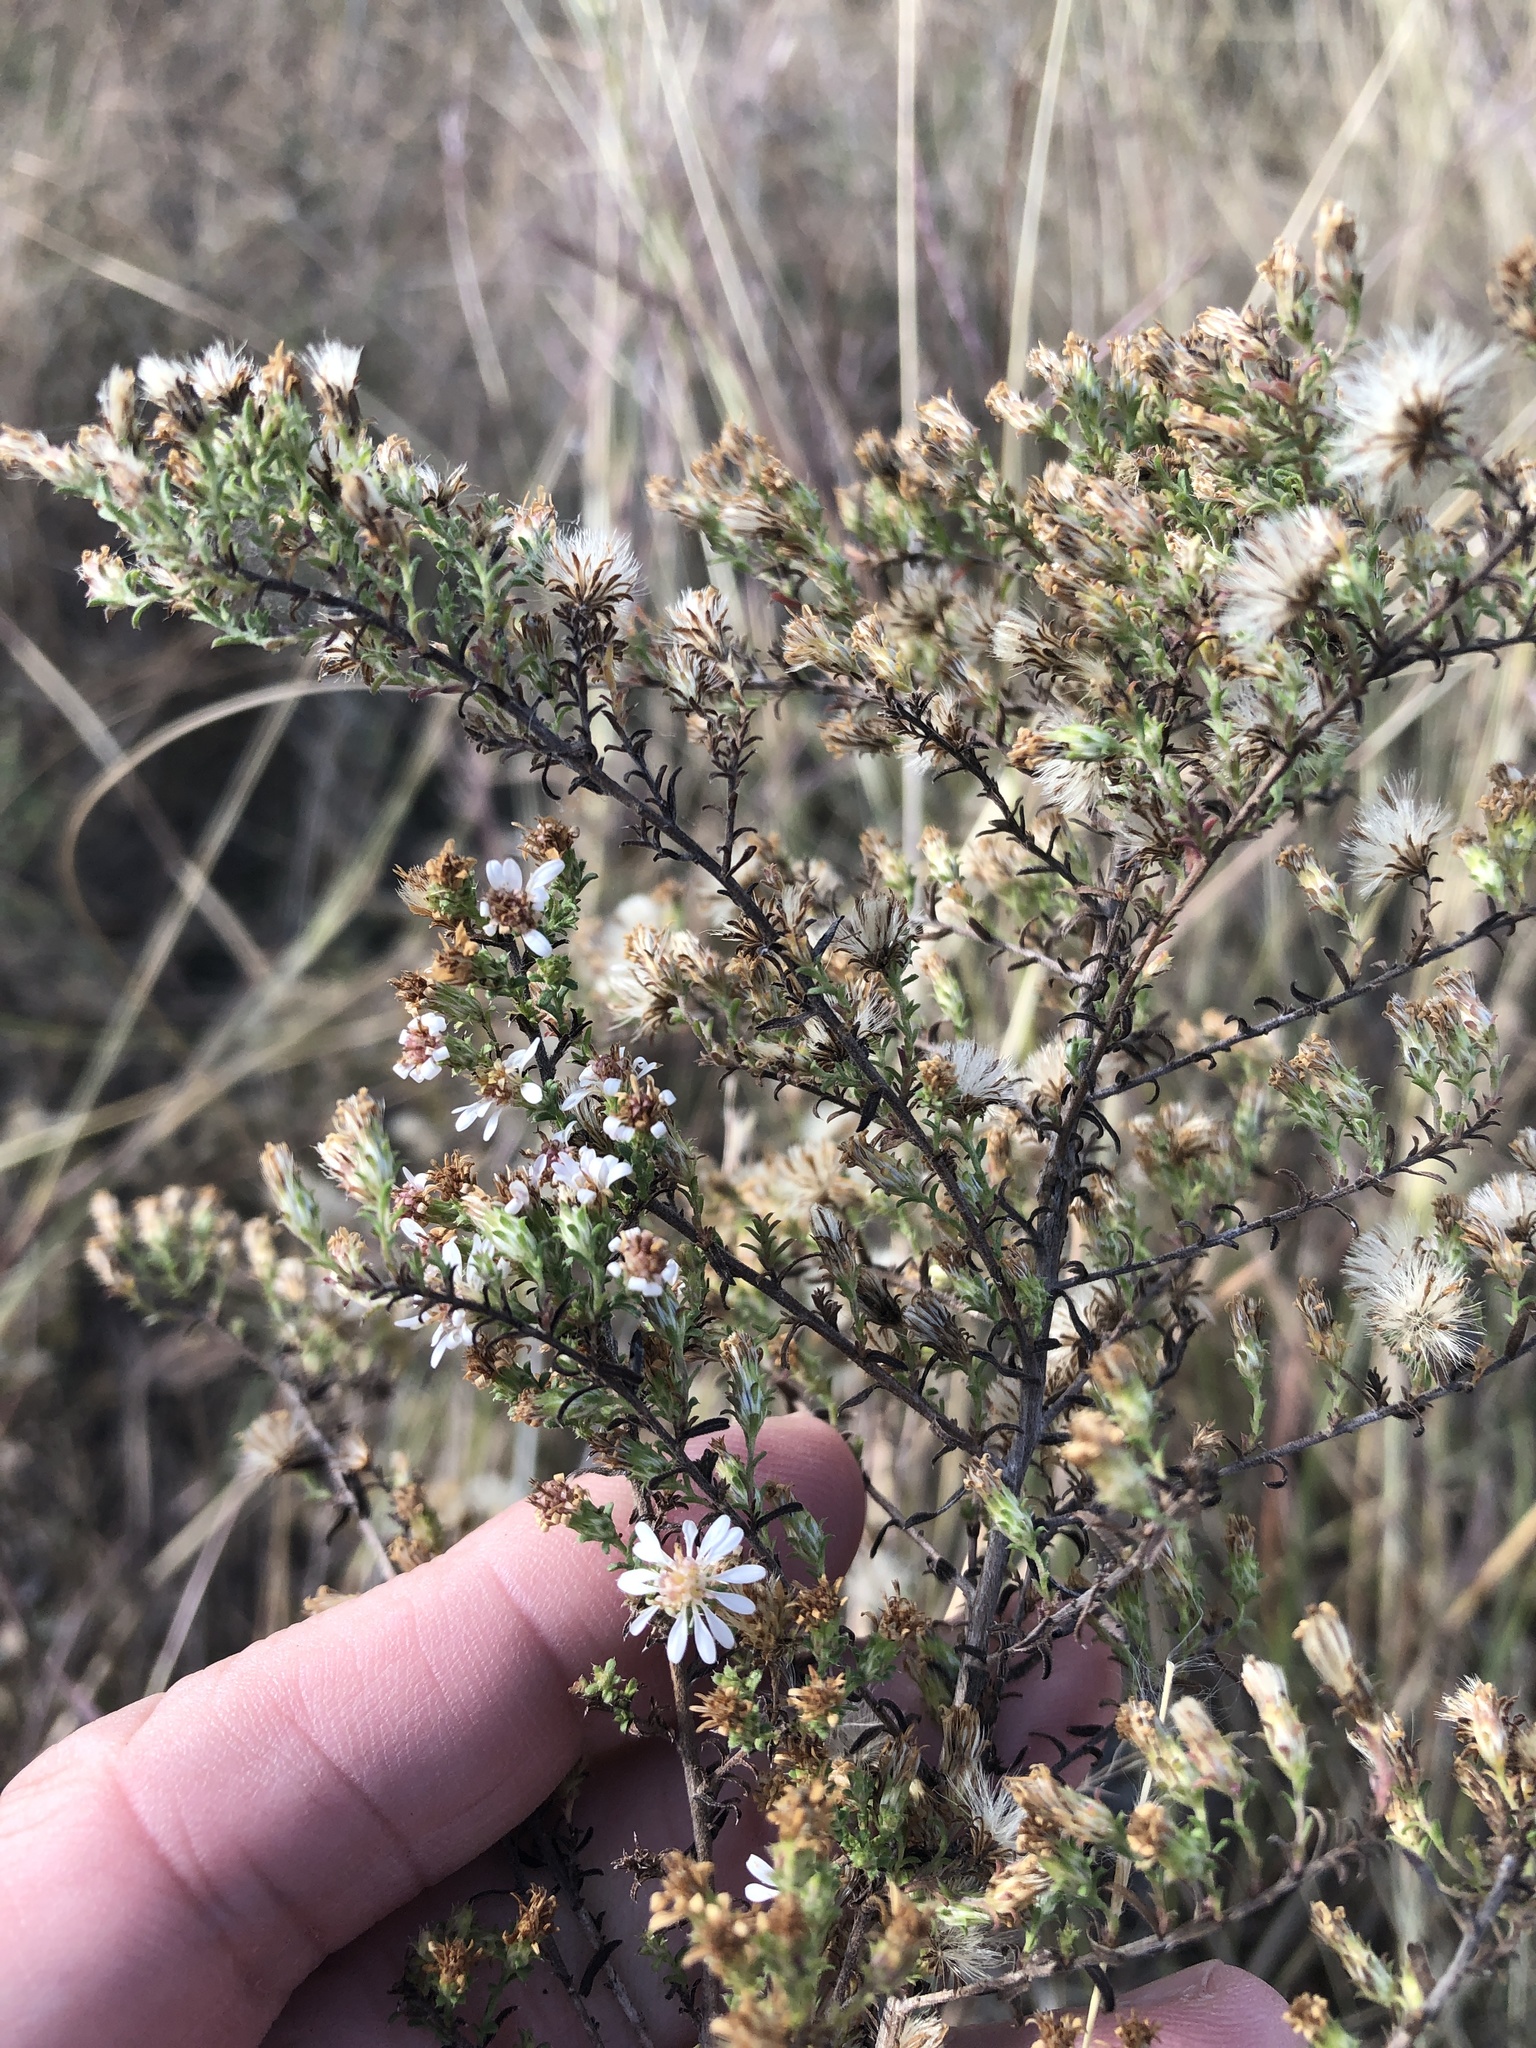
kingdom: Plantae
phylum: Tracheophyta
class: Magnoliopsida
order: Asterales
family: Asteraceae
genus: Symphyotrichum
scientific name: Symphyotrichum ericoides
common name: Heath aster
